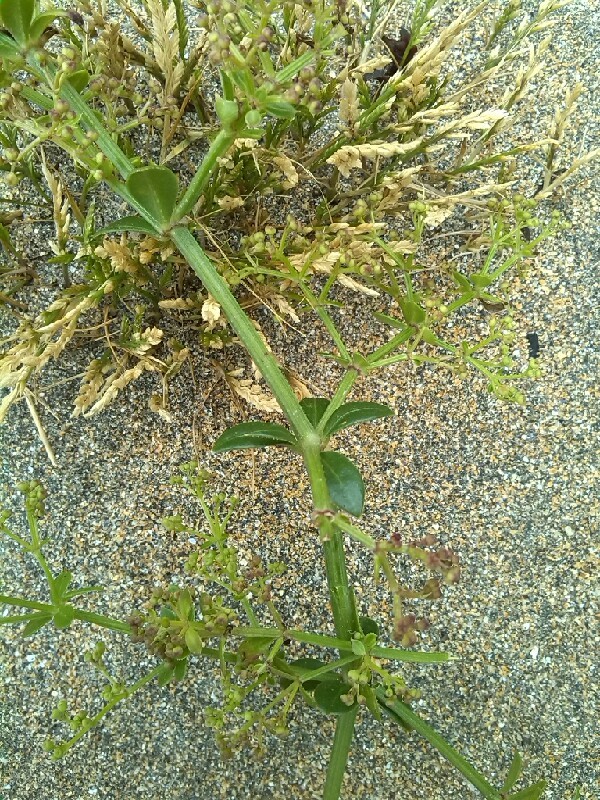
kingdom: Plantae
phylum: Tracheophyta
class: Magnoliopsida
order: Gentianales
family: Rubiaceae
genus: Rubia
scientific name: Rubia peregrina
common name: Wild madder
